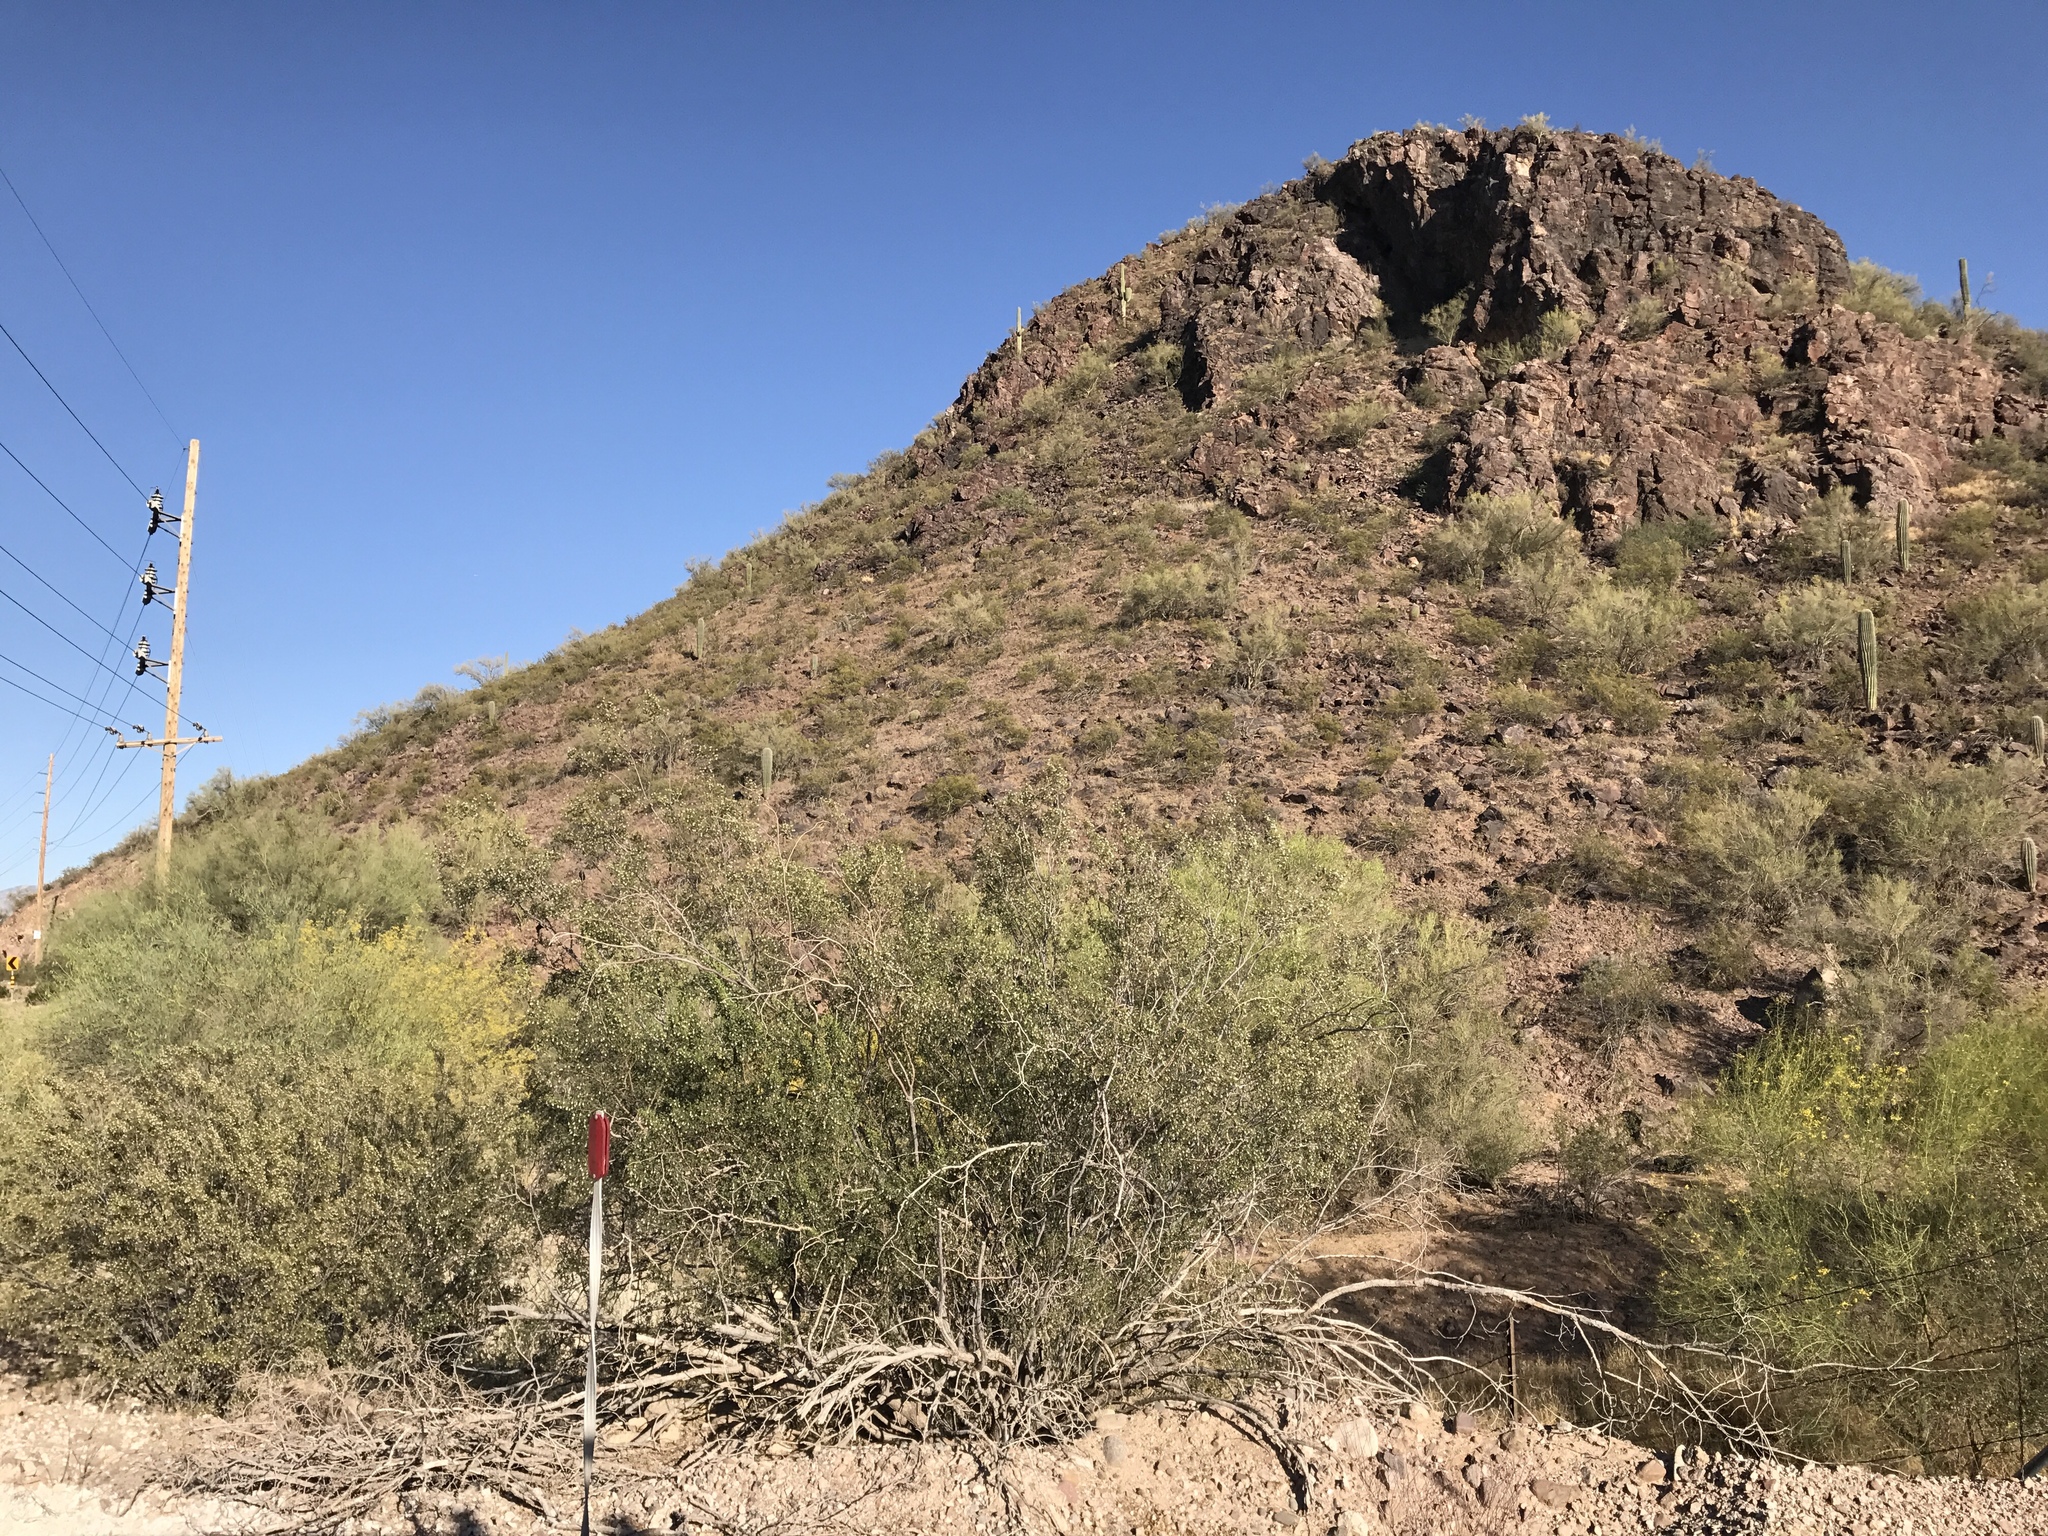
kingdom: Plantae
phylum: Tracheophyta
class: Magnoliopsida
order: Zygophyllales
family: Zygophyllaceae
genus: Larrea
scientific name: Larrea tridentata
